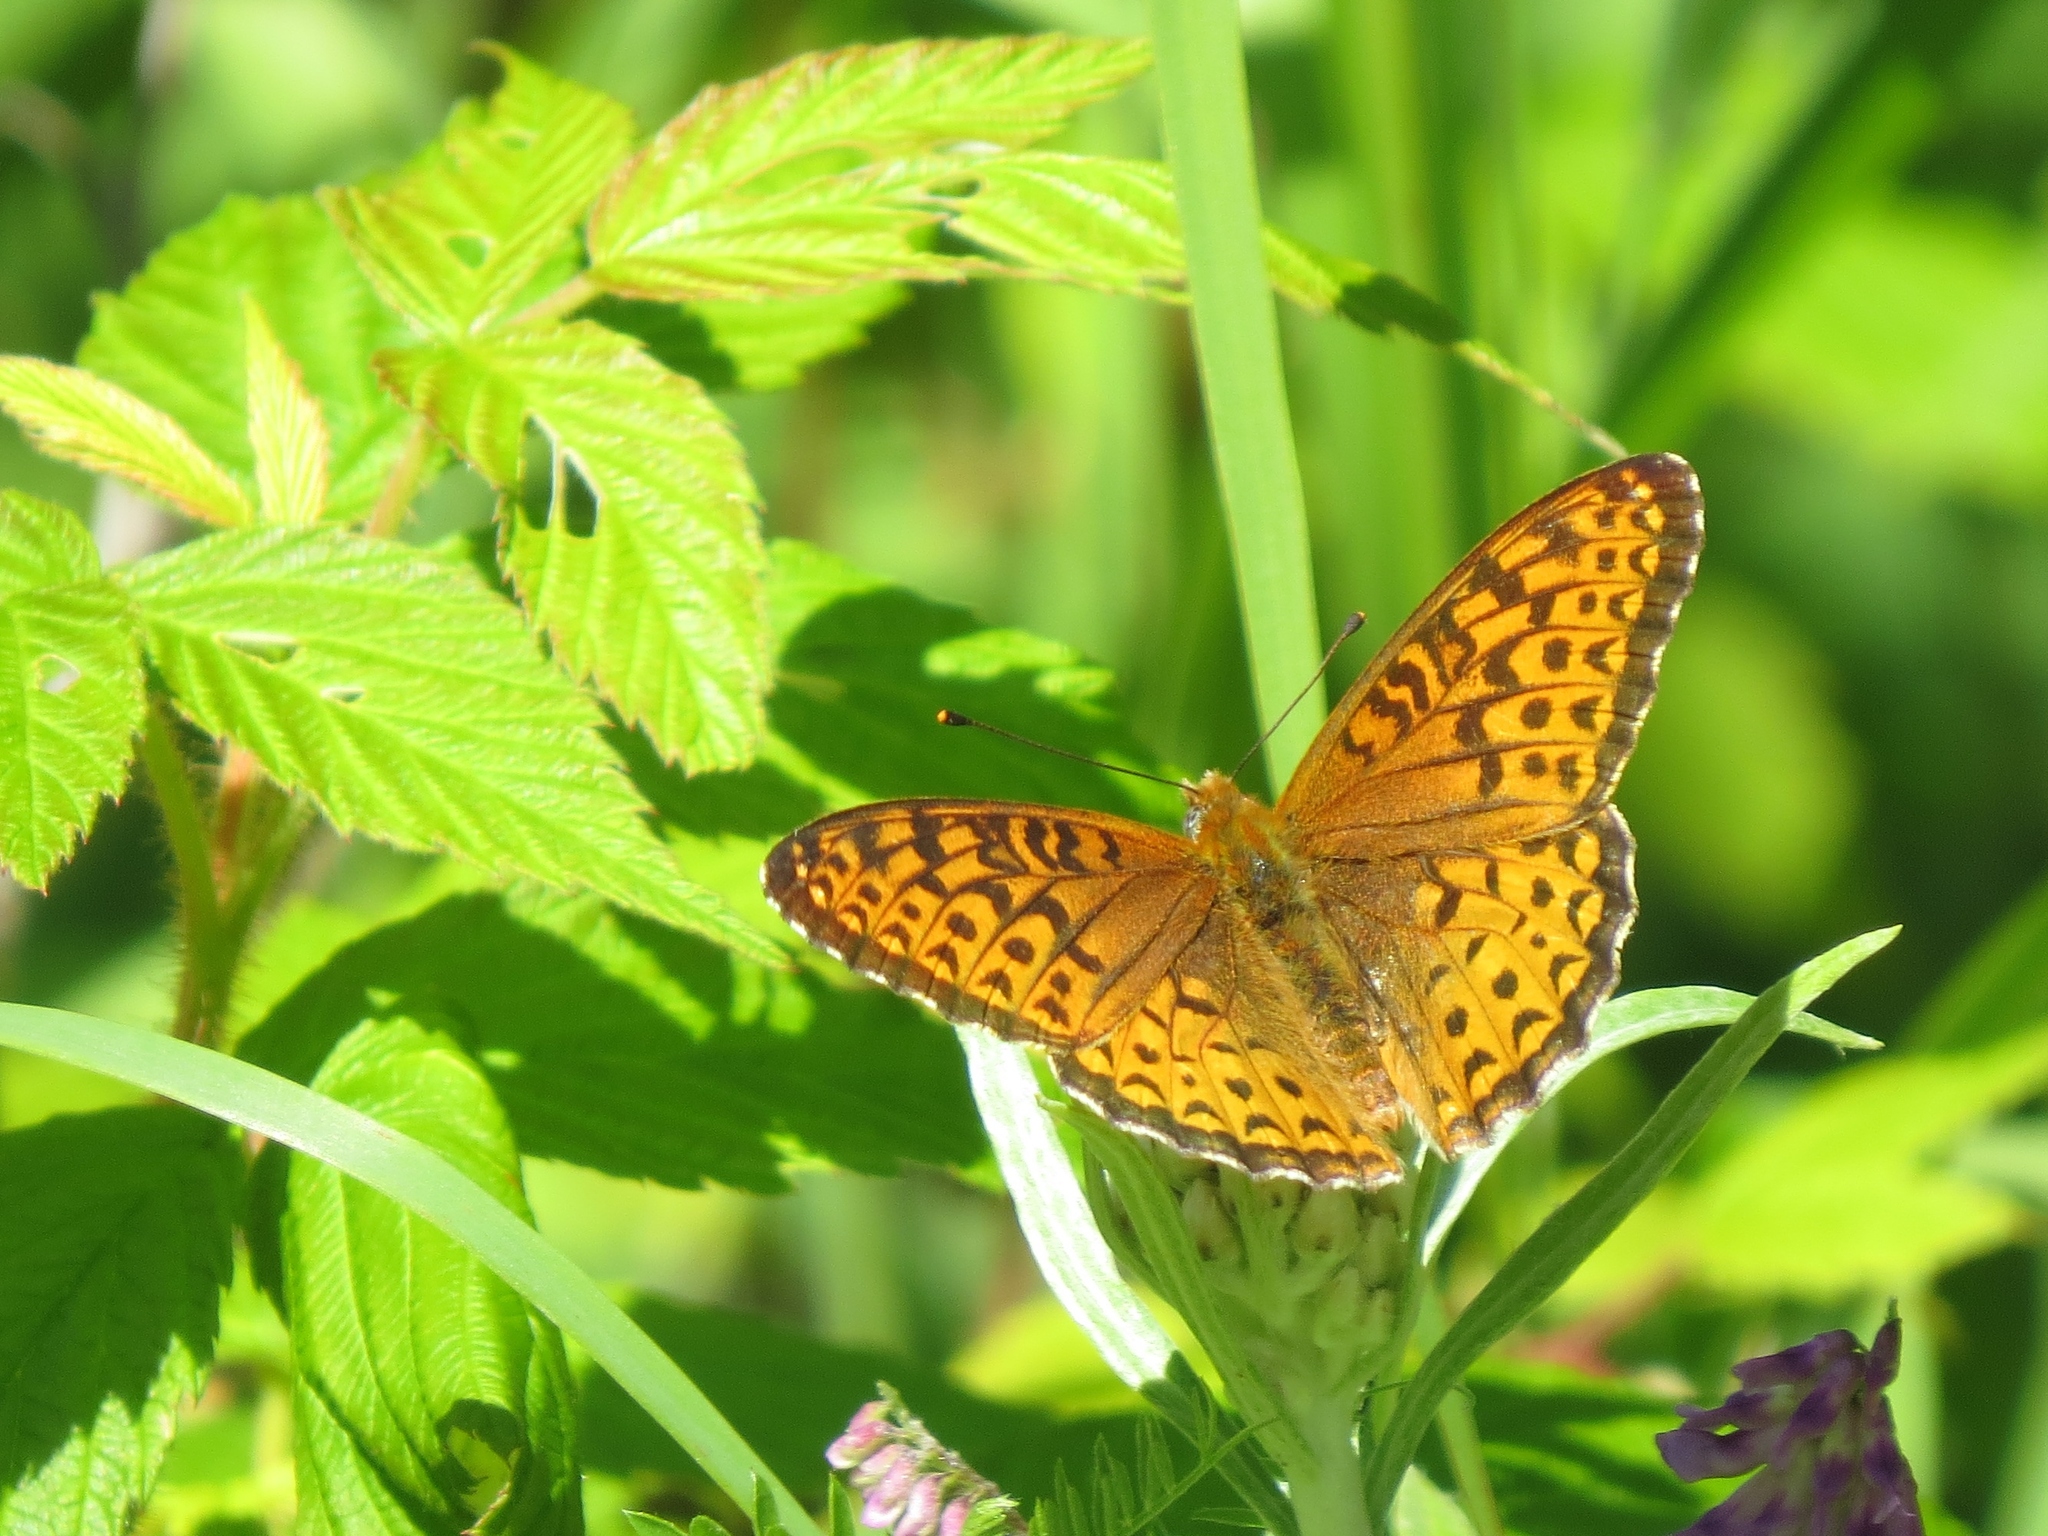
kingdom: Animalia
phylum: Arthropoda
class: Insecta
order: Lepidoptera
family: Nymphalidae
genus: Speyeria
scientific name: Speyeria atlantis
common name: Atlantis fritillary
